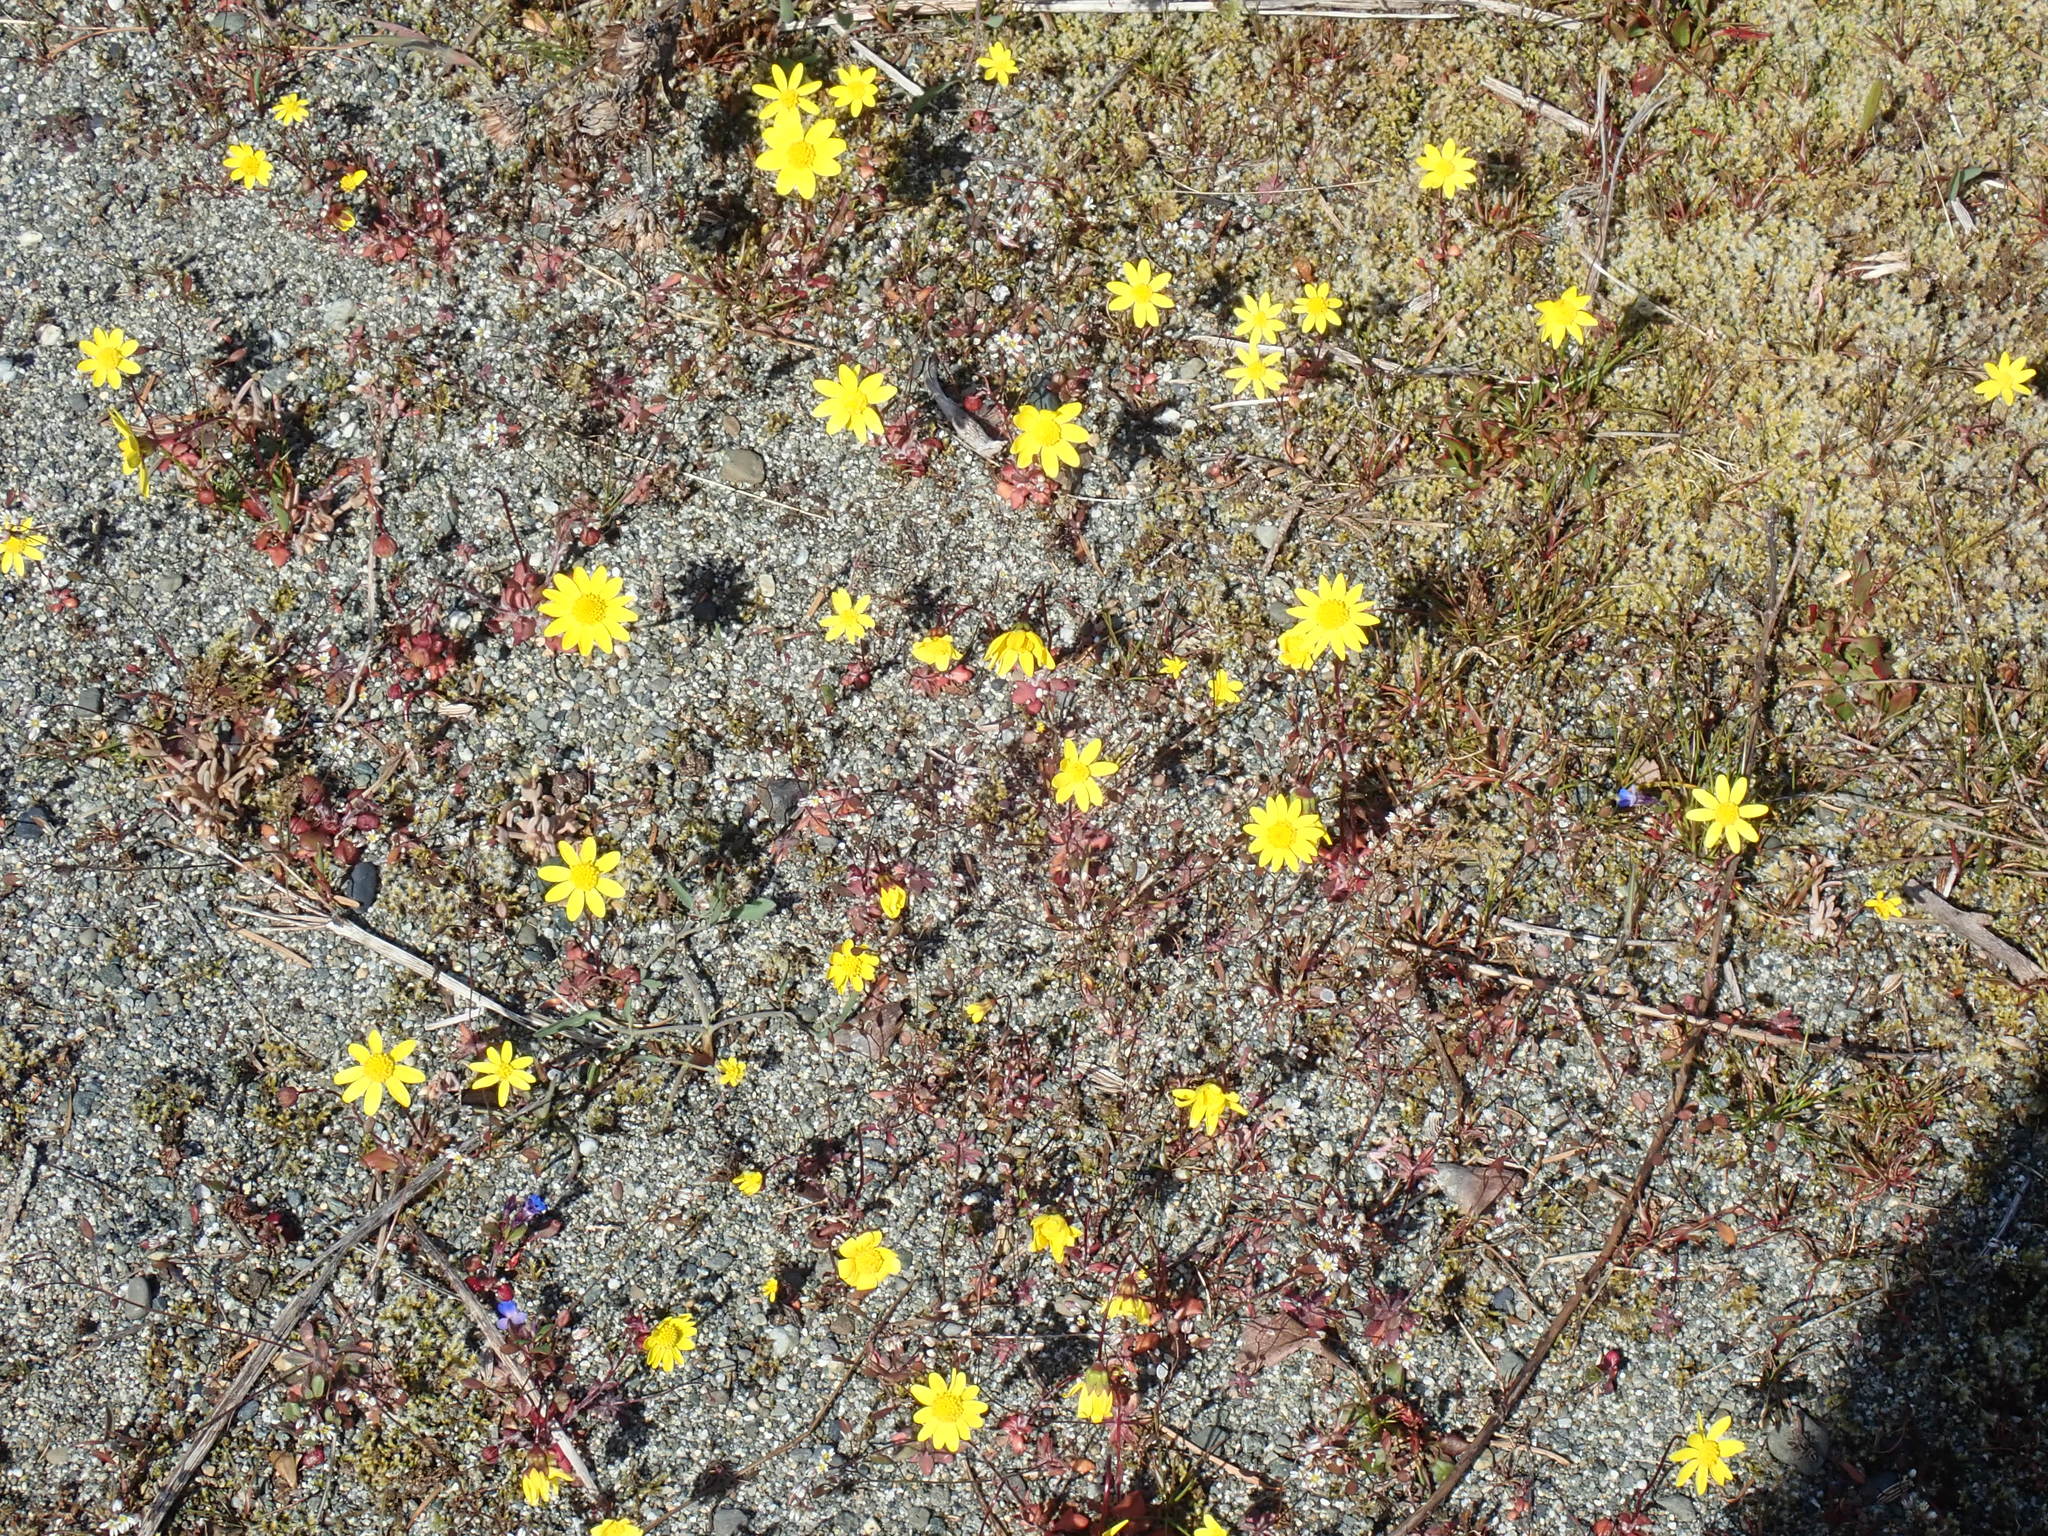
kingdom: Plantae
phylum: Tracheophyta
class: Magnoliopsida
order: Asterales
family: Asteraceae
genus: Crocidium
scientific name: Crocidium multicaule
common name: Common spring gold
